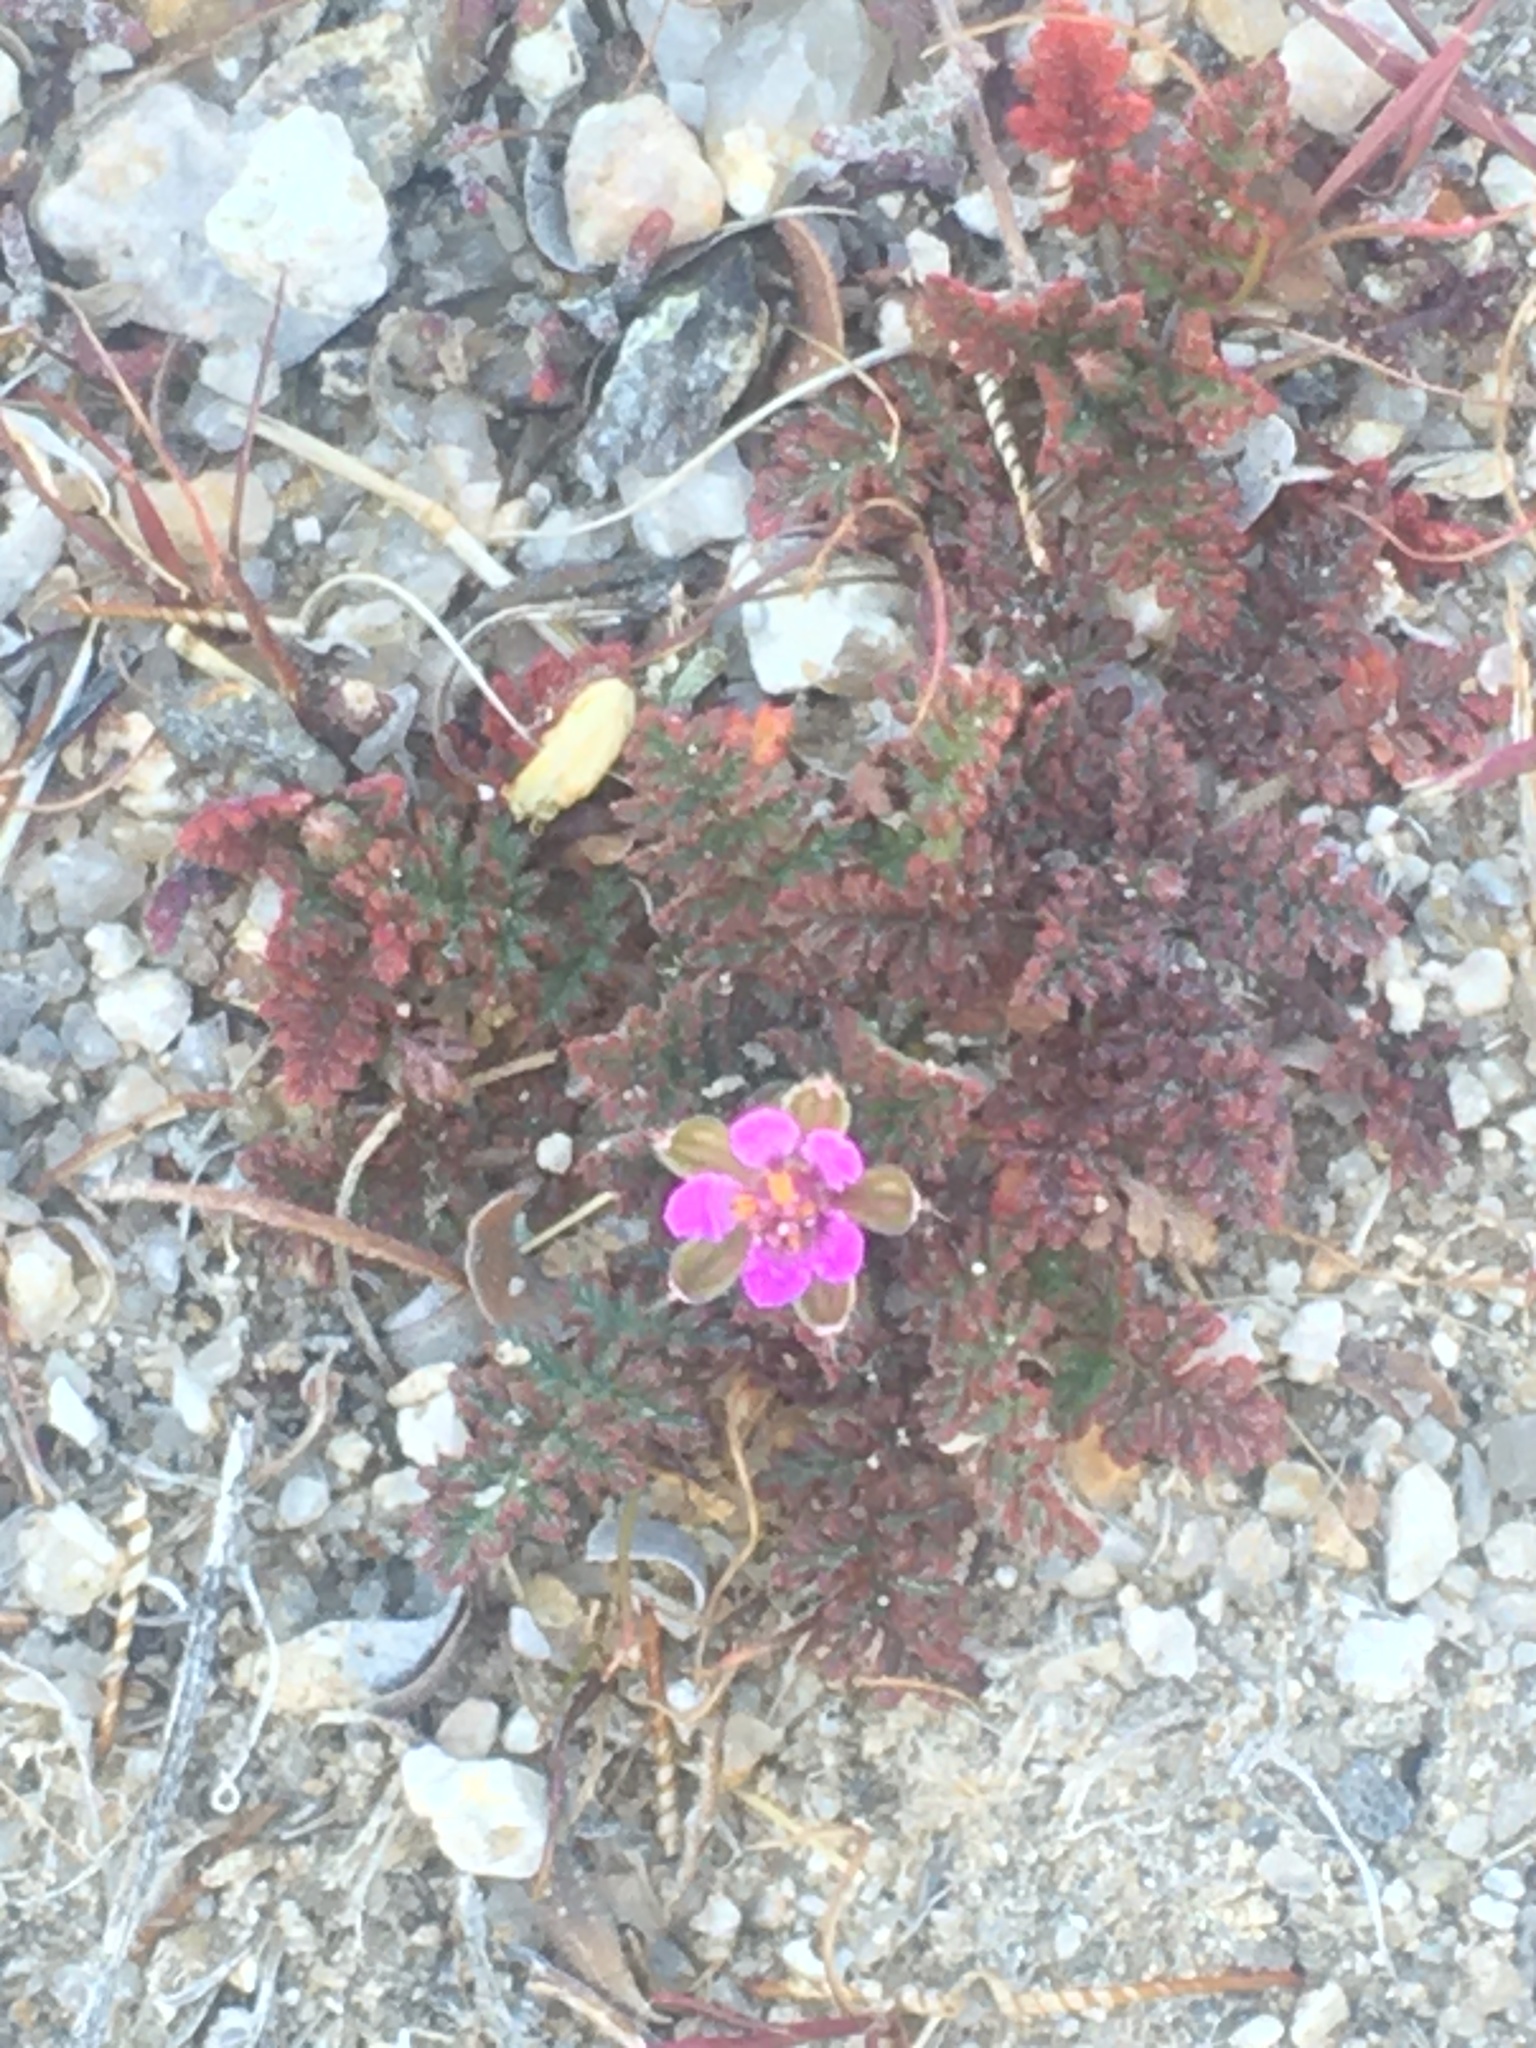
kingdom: Plantae
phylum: Tracheophyta
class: Magnoliopsida
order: Geraniales
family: Geraniaceae
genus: Erodium
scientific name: Erodium cicutarium
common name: Common stork's-bill
